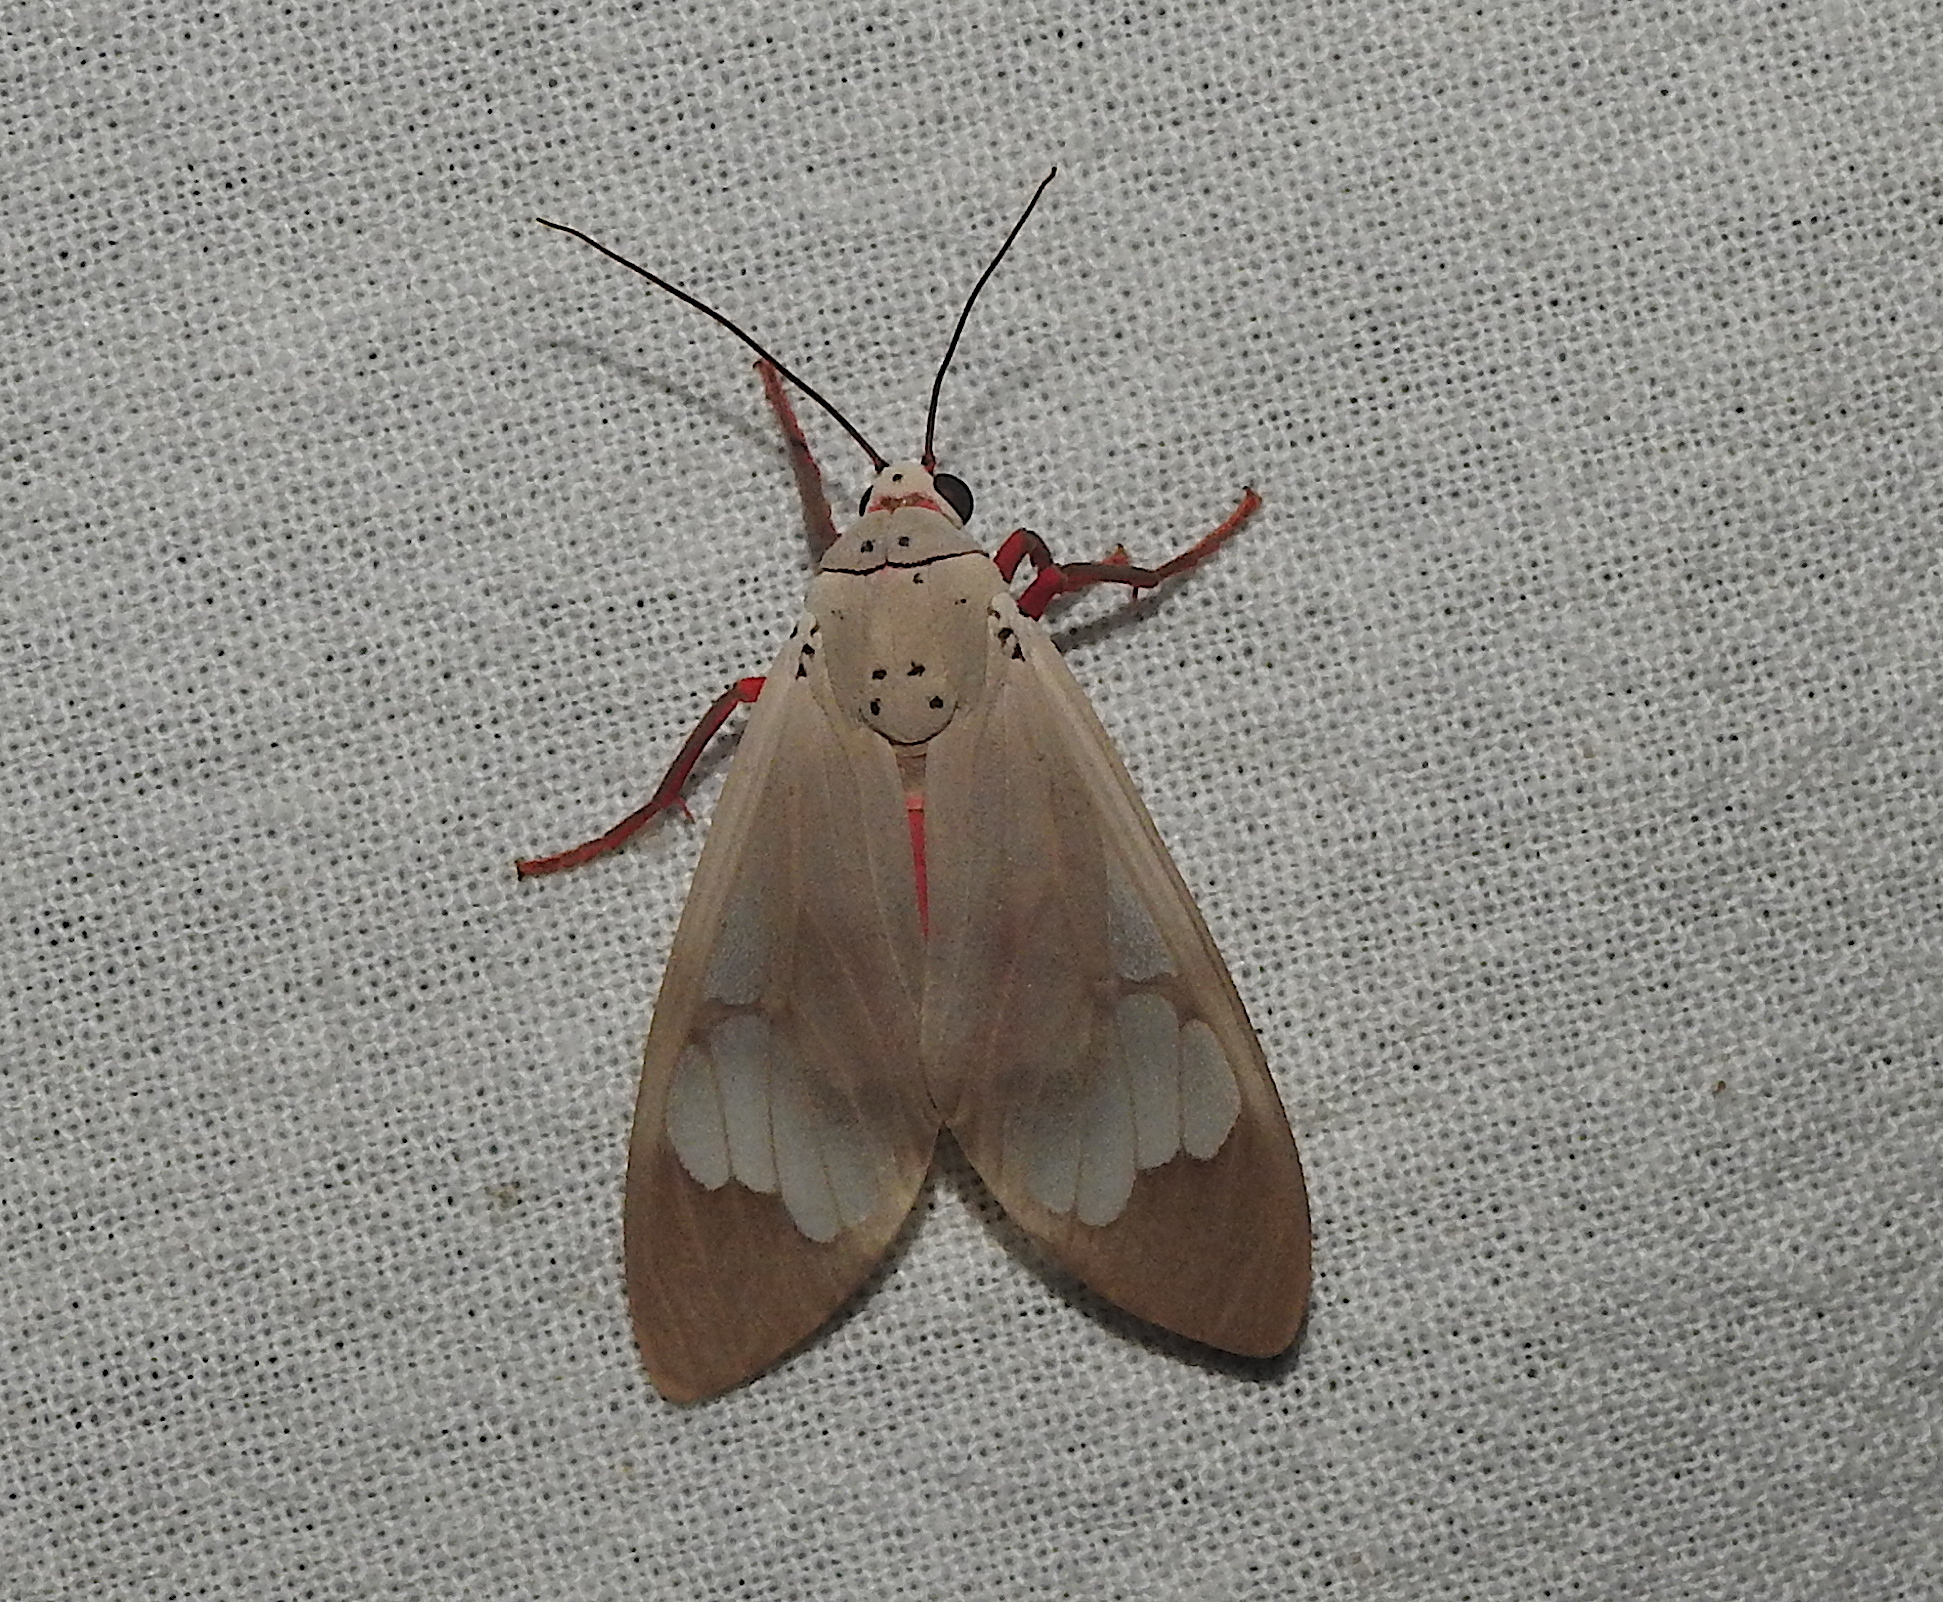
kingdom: Animalia
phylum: Arthropoda
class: Insecta
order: Lepidoptera
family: Erebidae
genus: Amerila
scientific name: Amerila astreus
